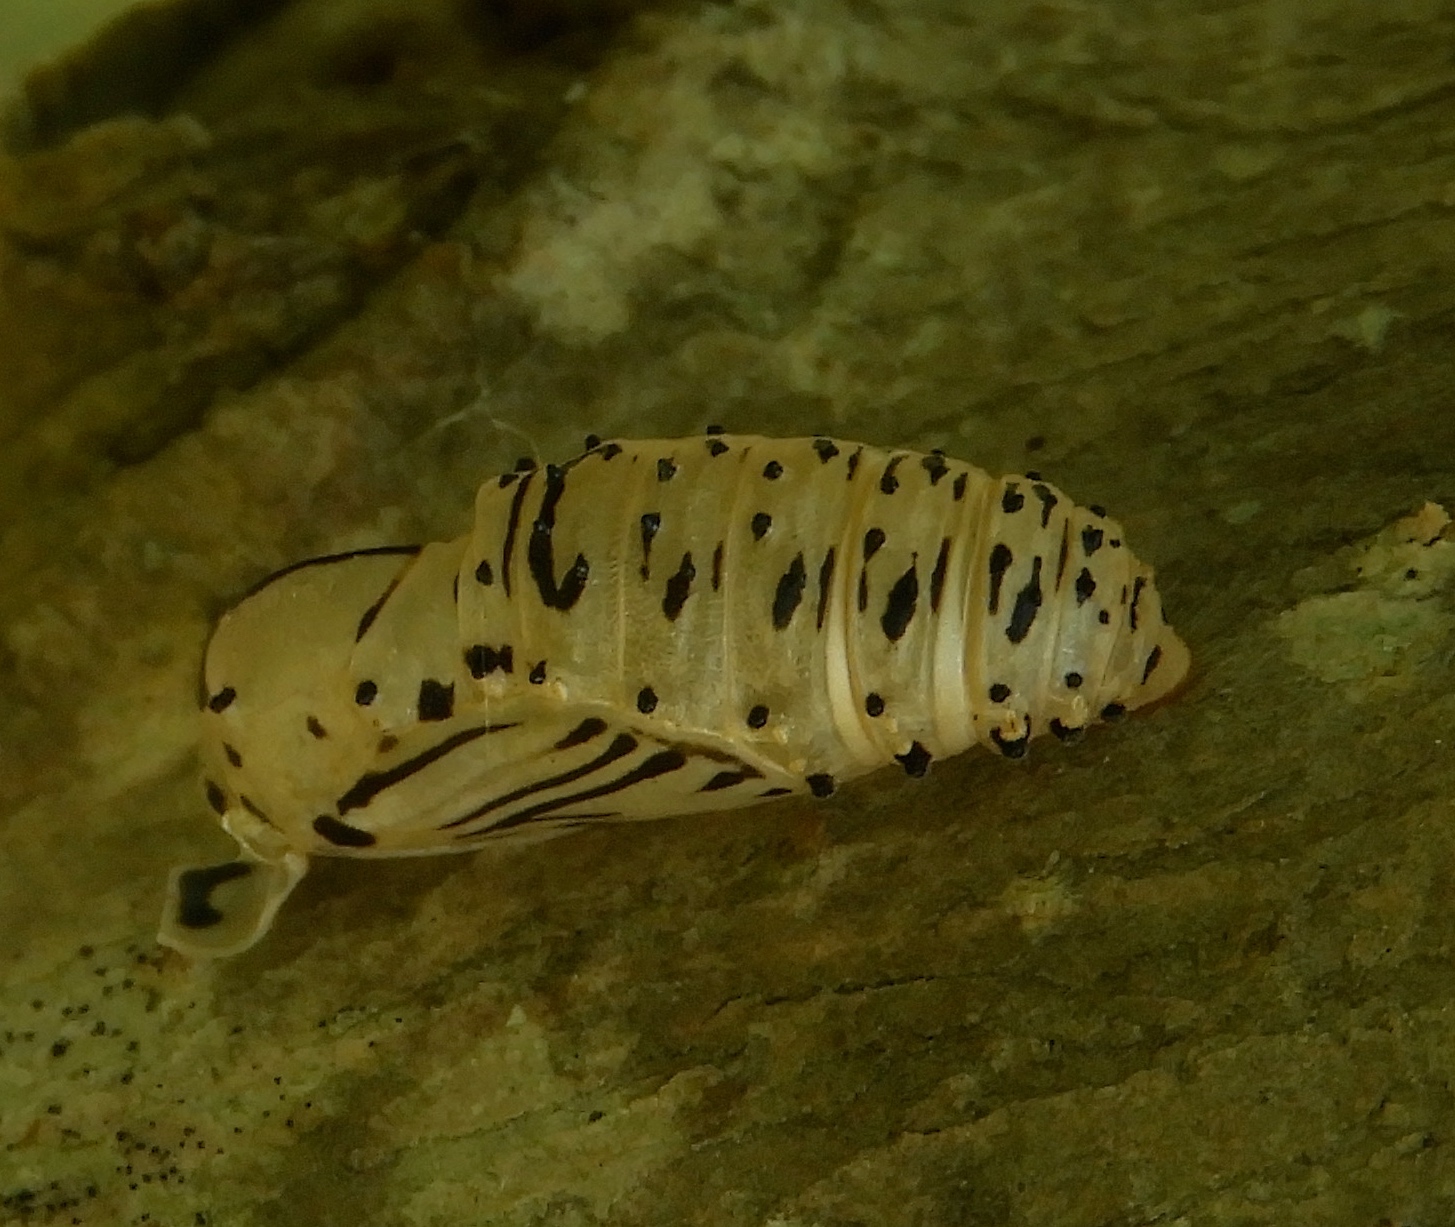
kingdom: Animalia
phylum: Arthropoda
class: Insecta
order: Lepidoptera
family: Nymphalidae
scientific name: Nymphalidae
